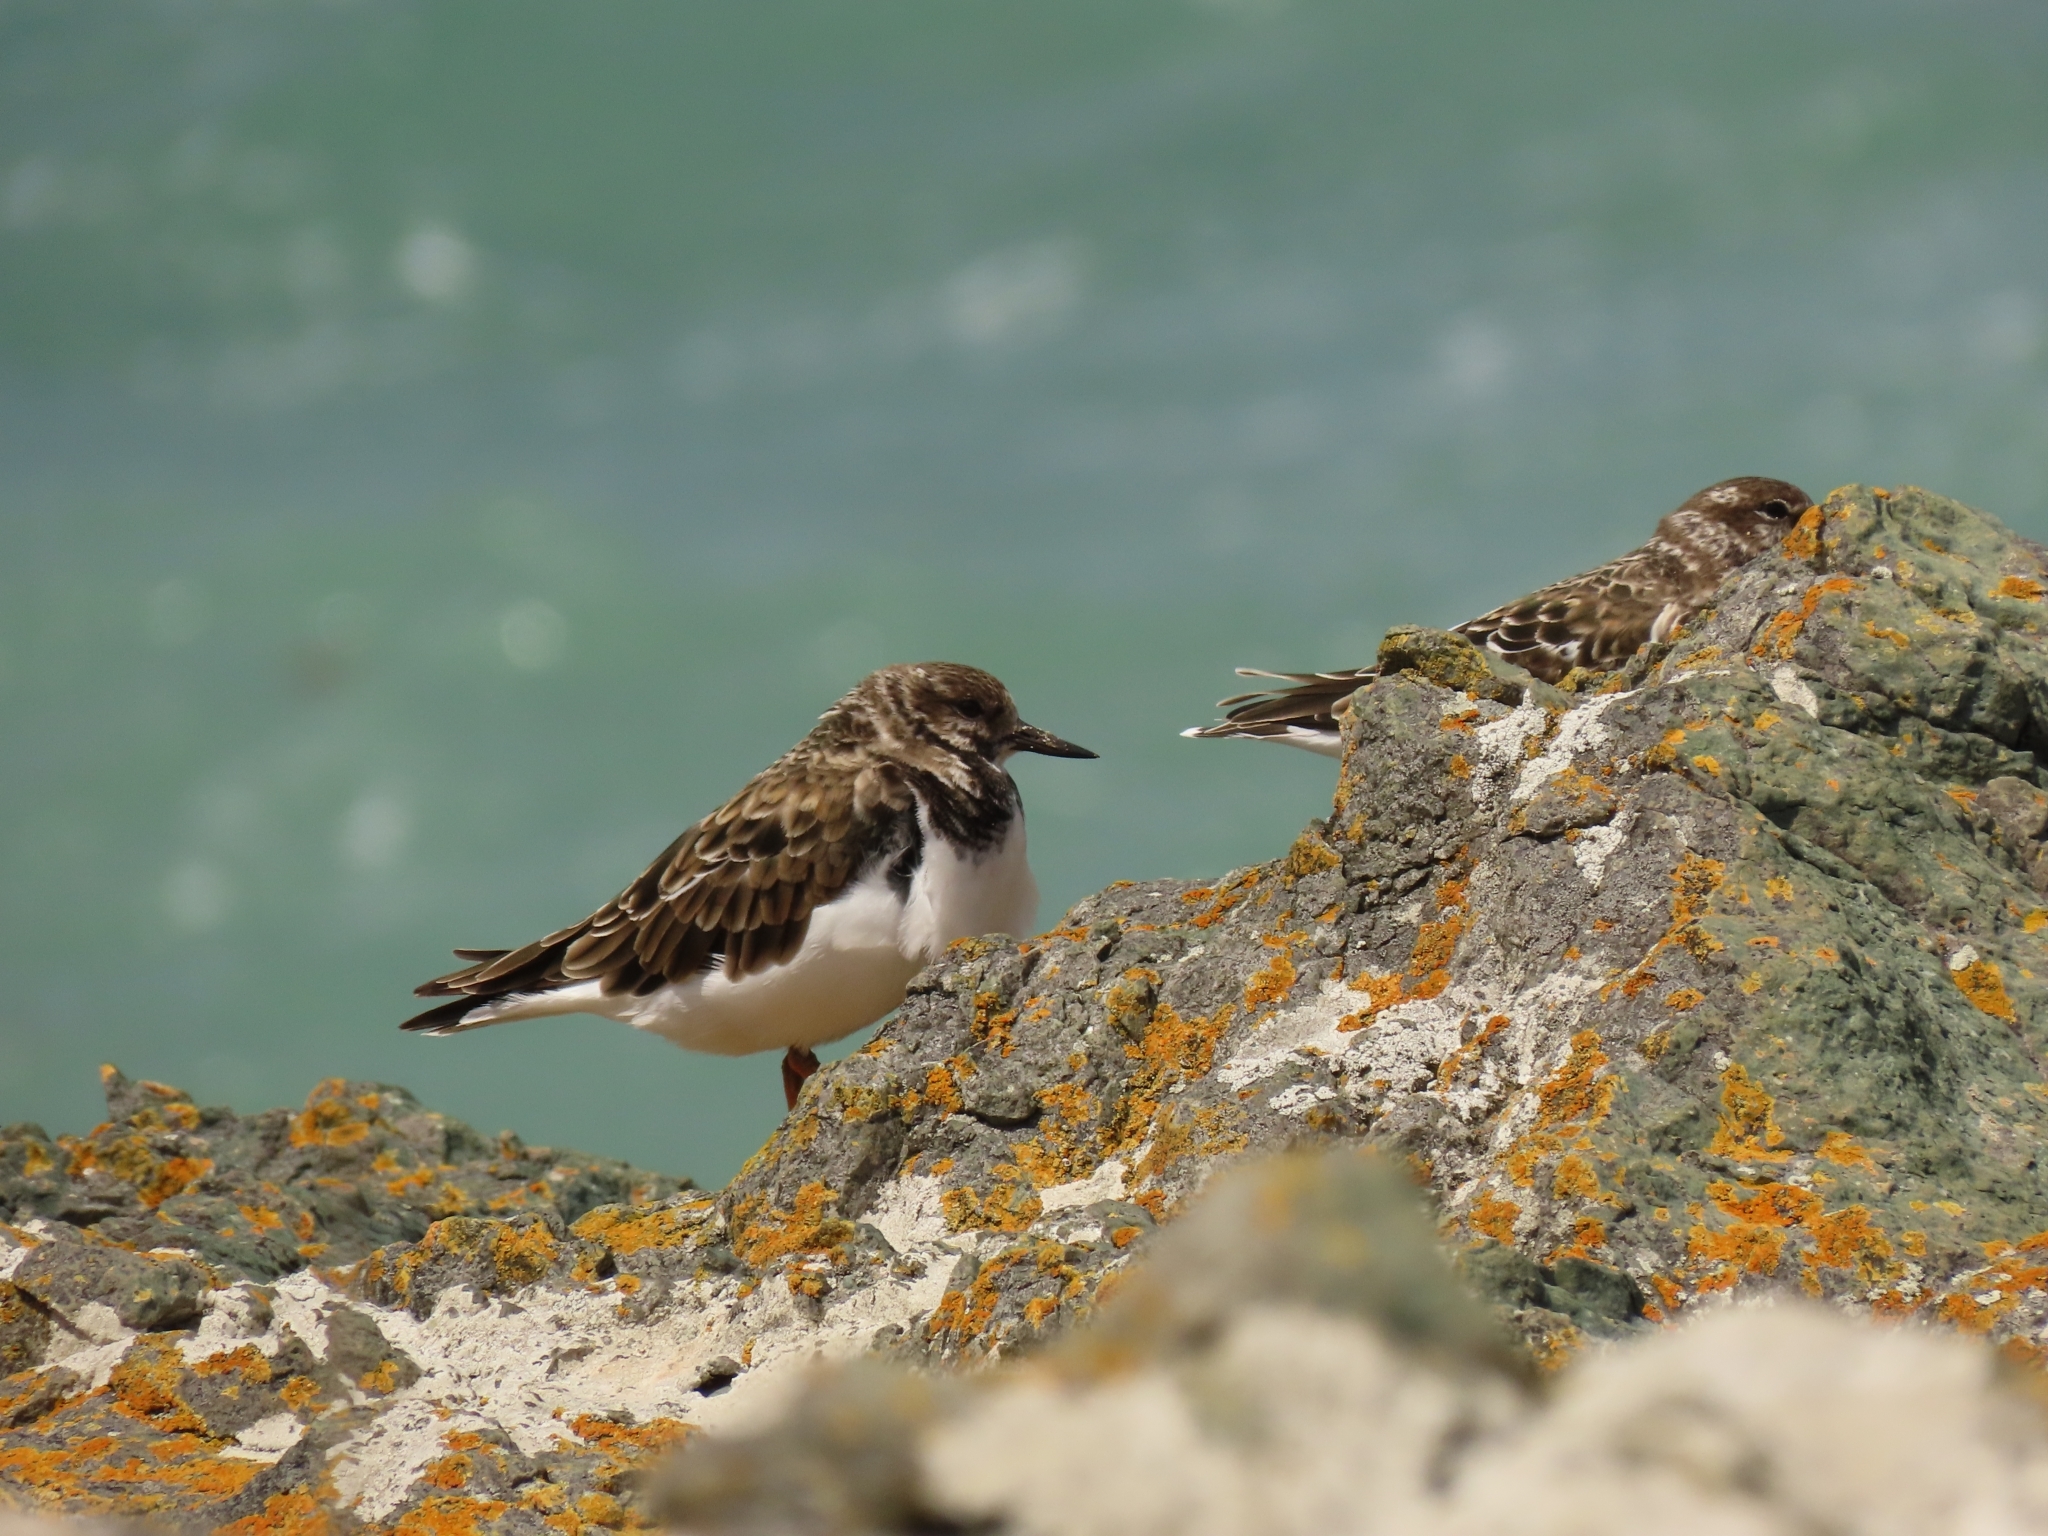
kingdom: Animalia
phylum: Chordata
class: Aves
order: Charadriiformes
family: Scolopacidae
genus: Arenaria
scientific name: Arenaria interpres
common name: Ruddy turnstone
